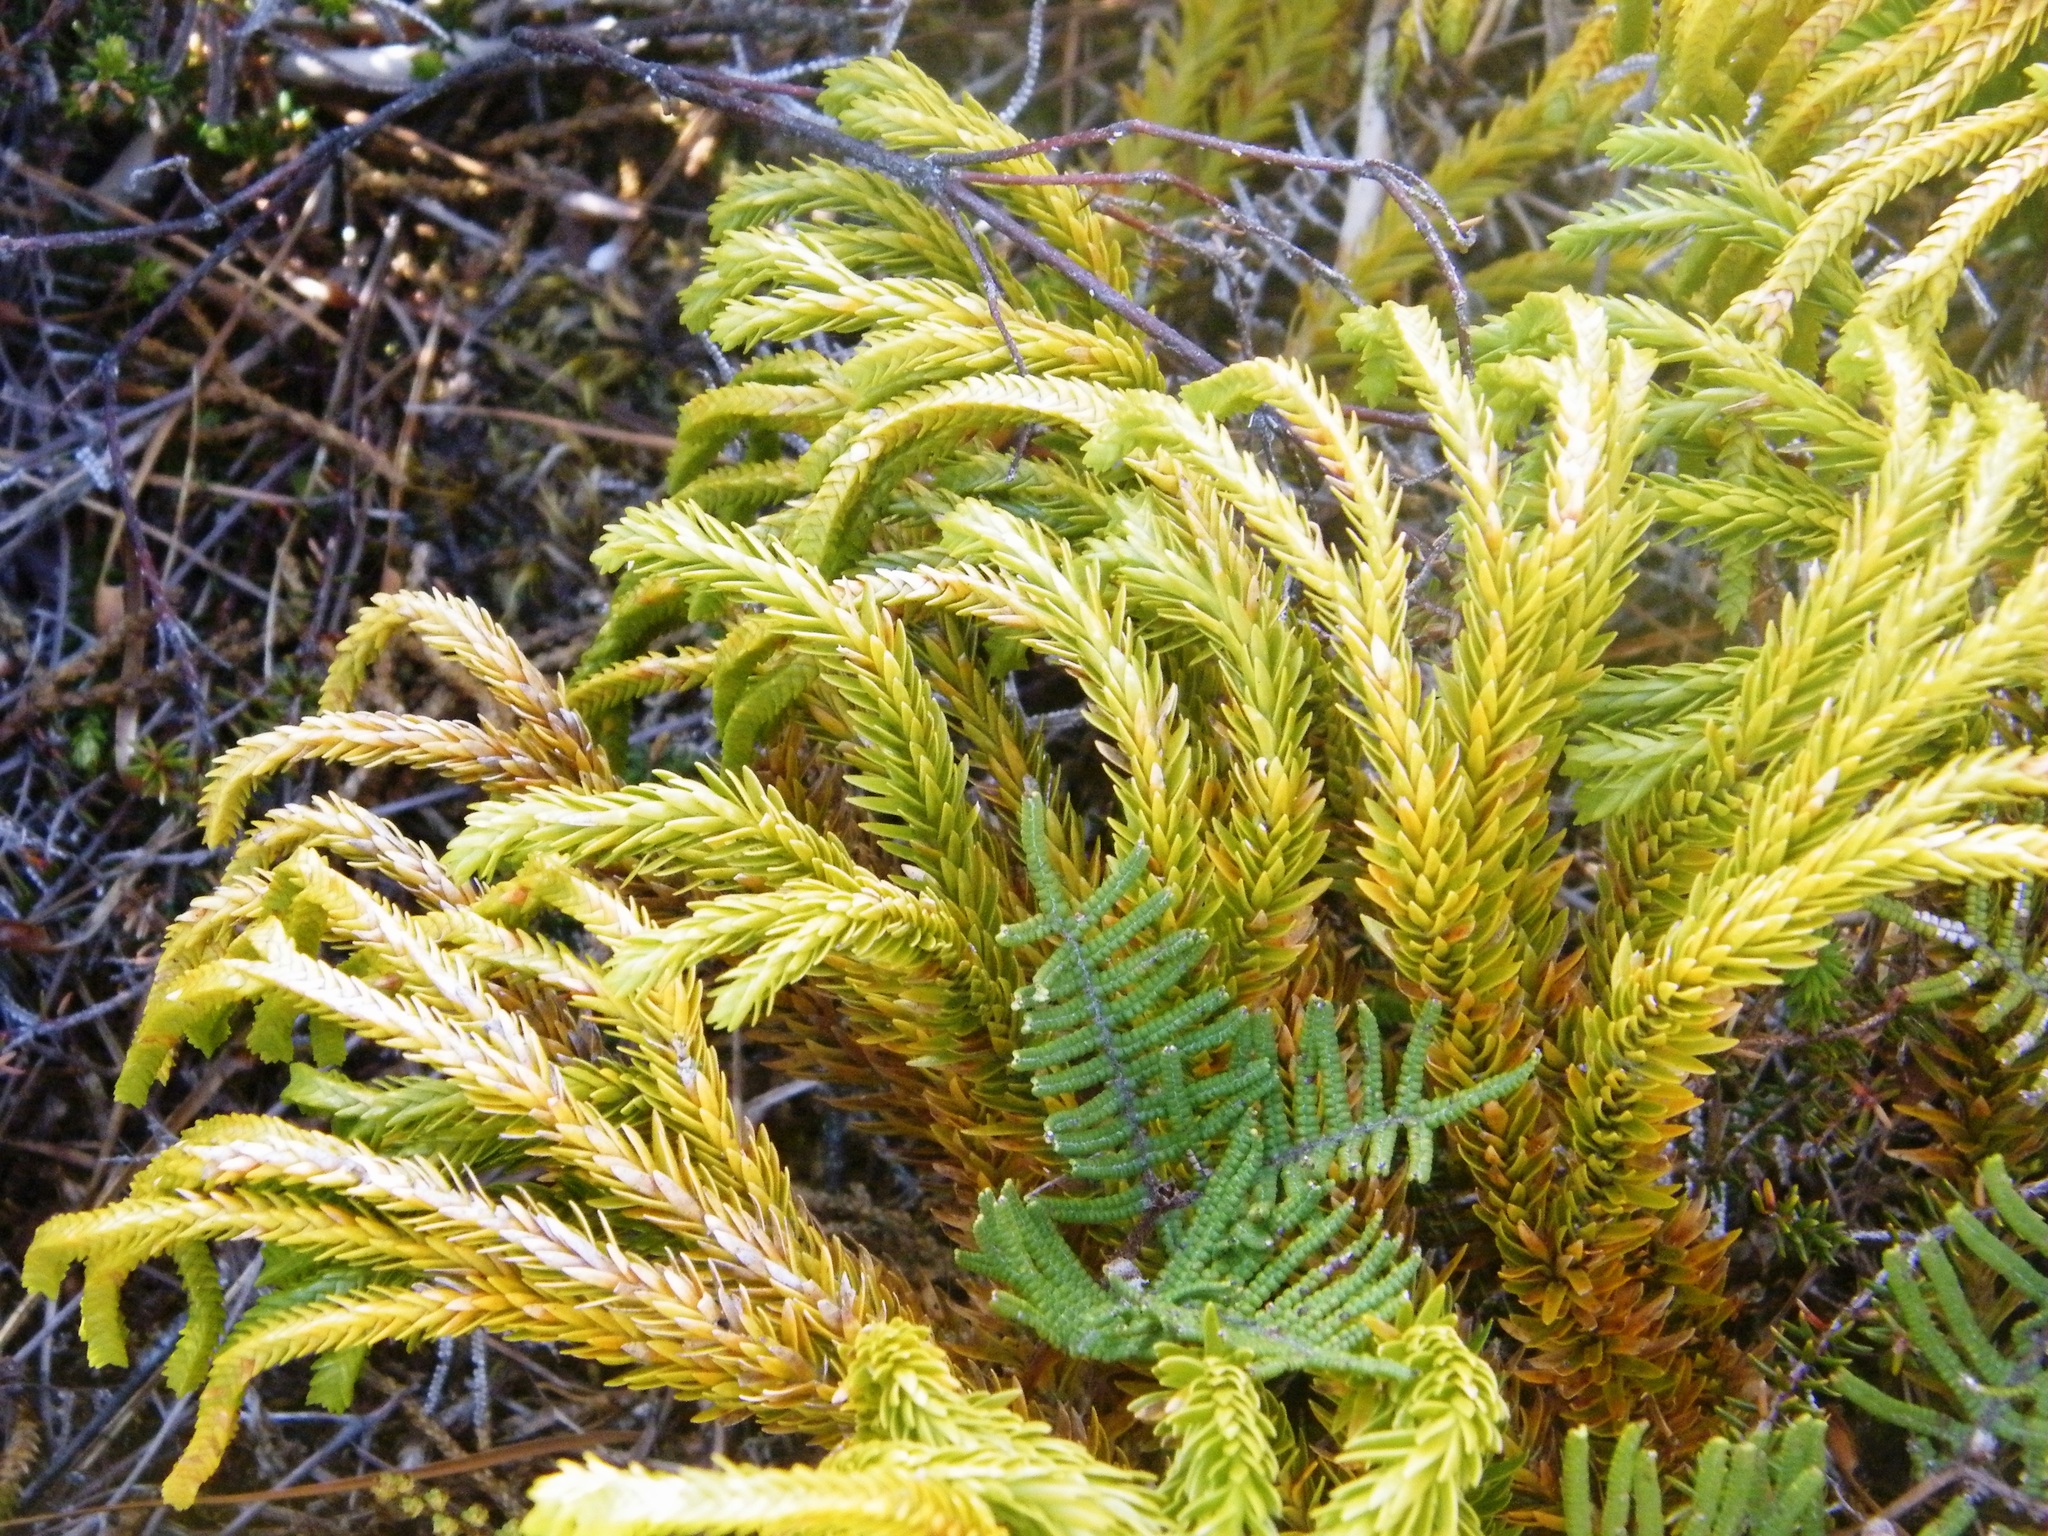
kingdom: Plantae
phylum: Tracheophyta
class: Lycopodiopsida
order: Lycopodiales
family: Lycopodiaceae
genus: Phlegmariurus
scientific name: Phlegmariurus varius
